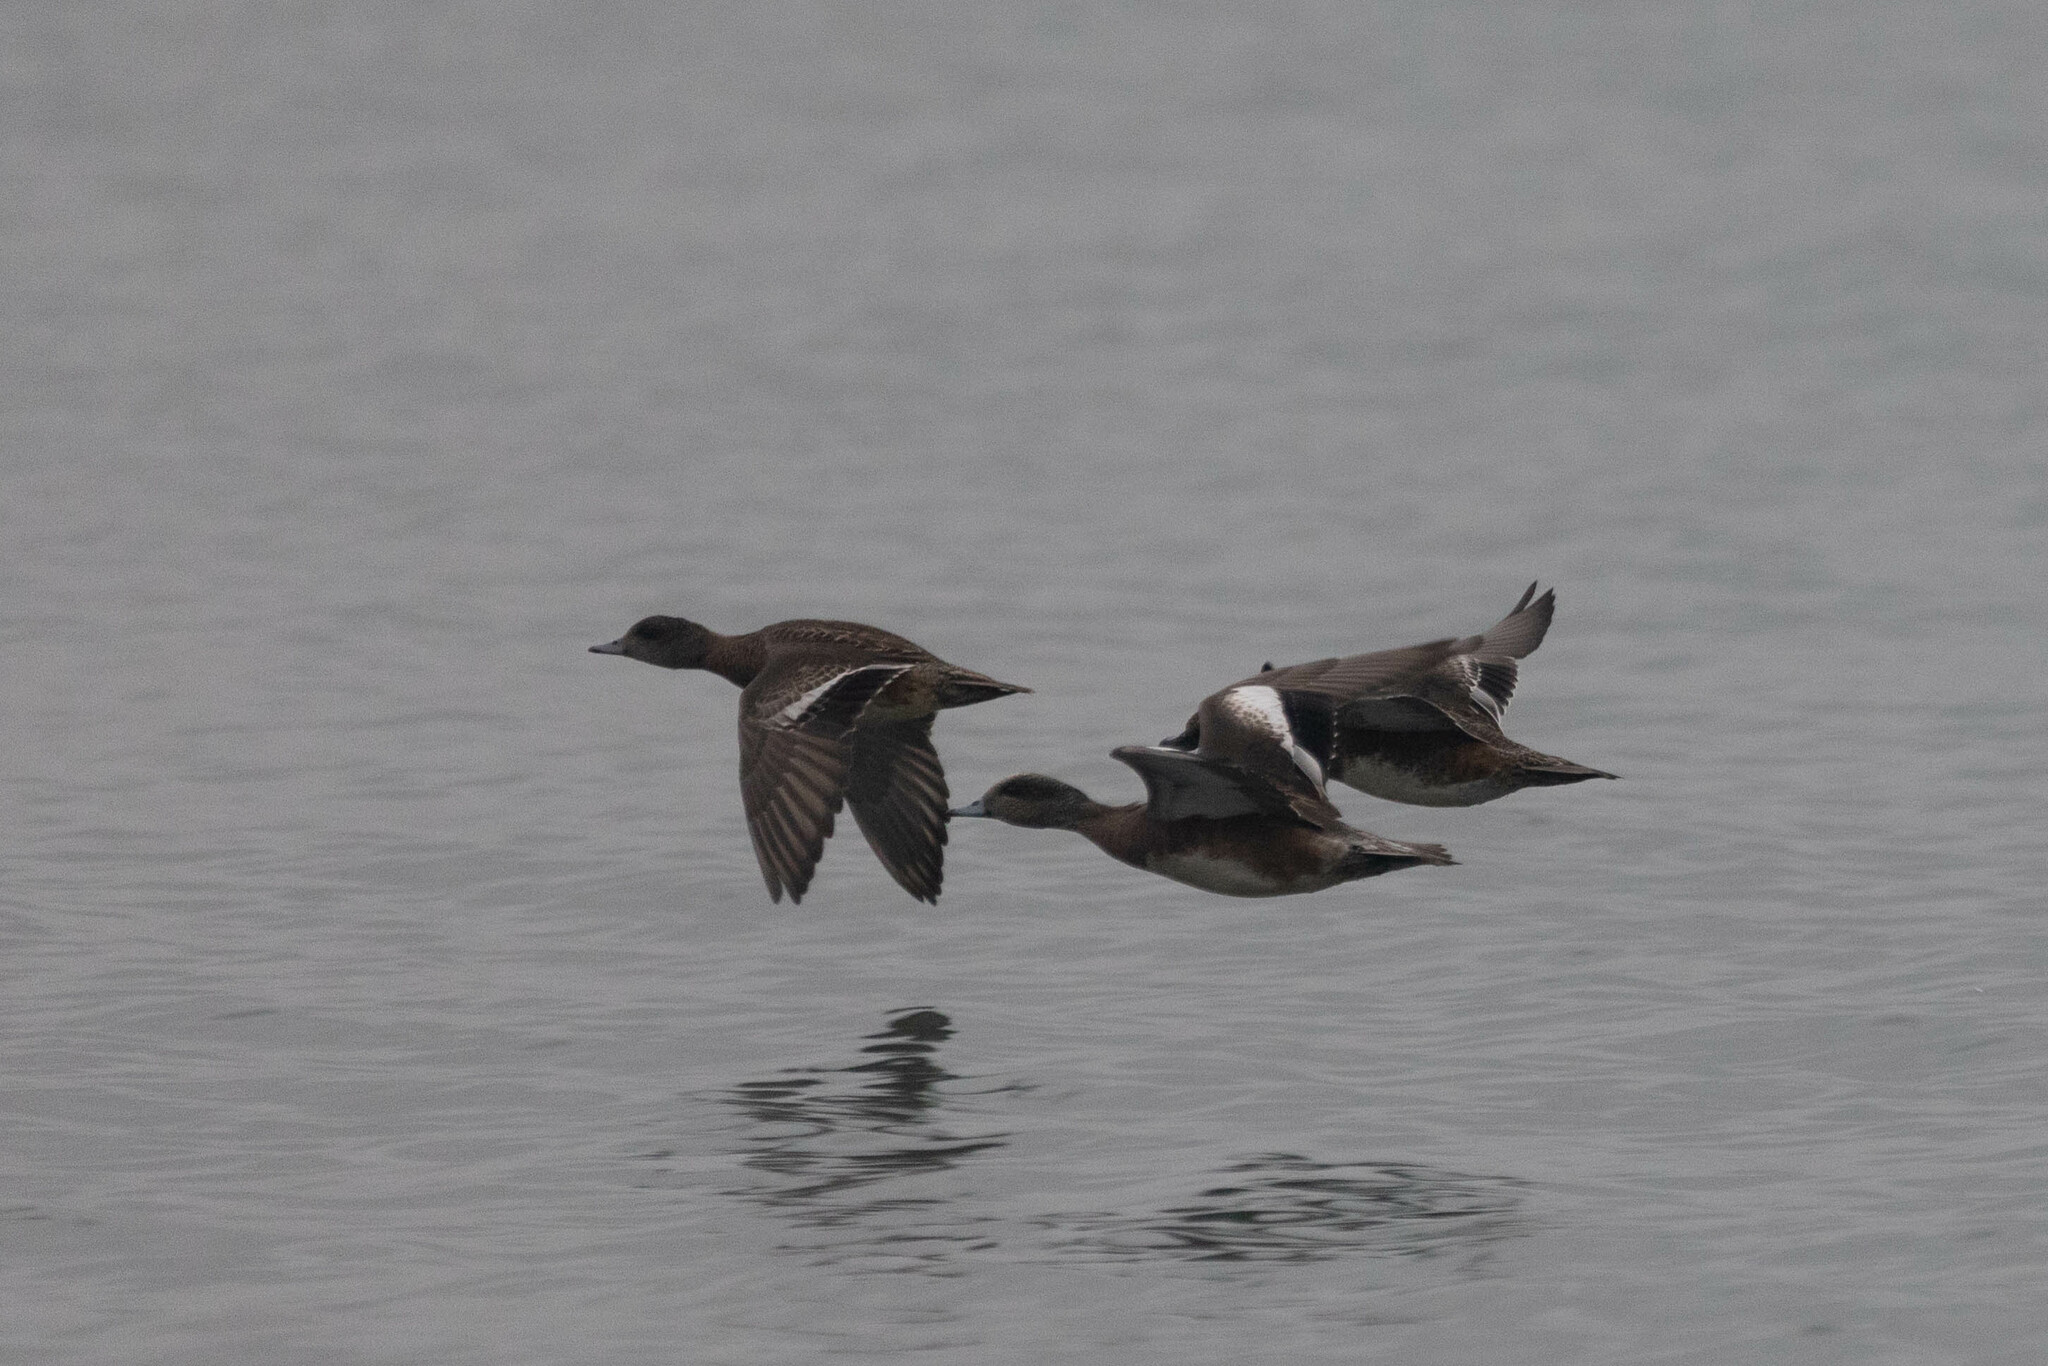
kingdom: Animalia
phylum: Chordata
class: Aves
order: Anseriformes
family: Anatidae
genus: Mareca
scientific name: Mareca americana
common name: American wigeon
